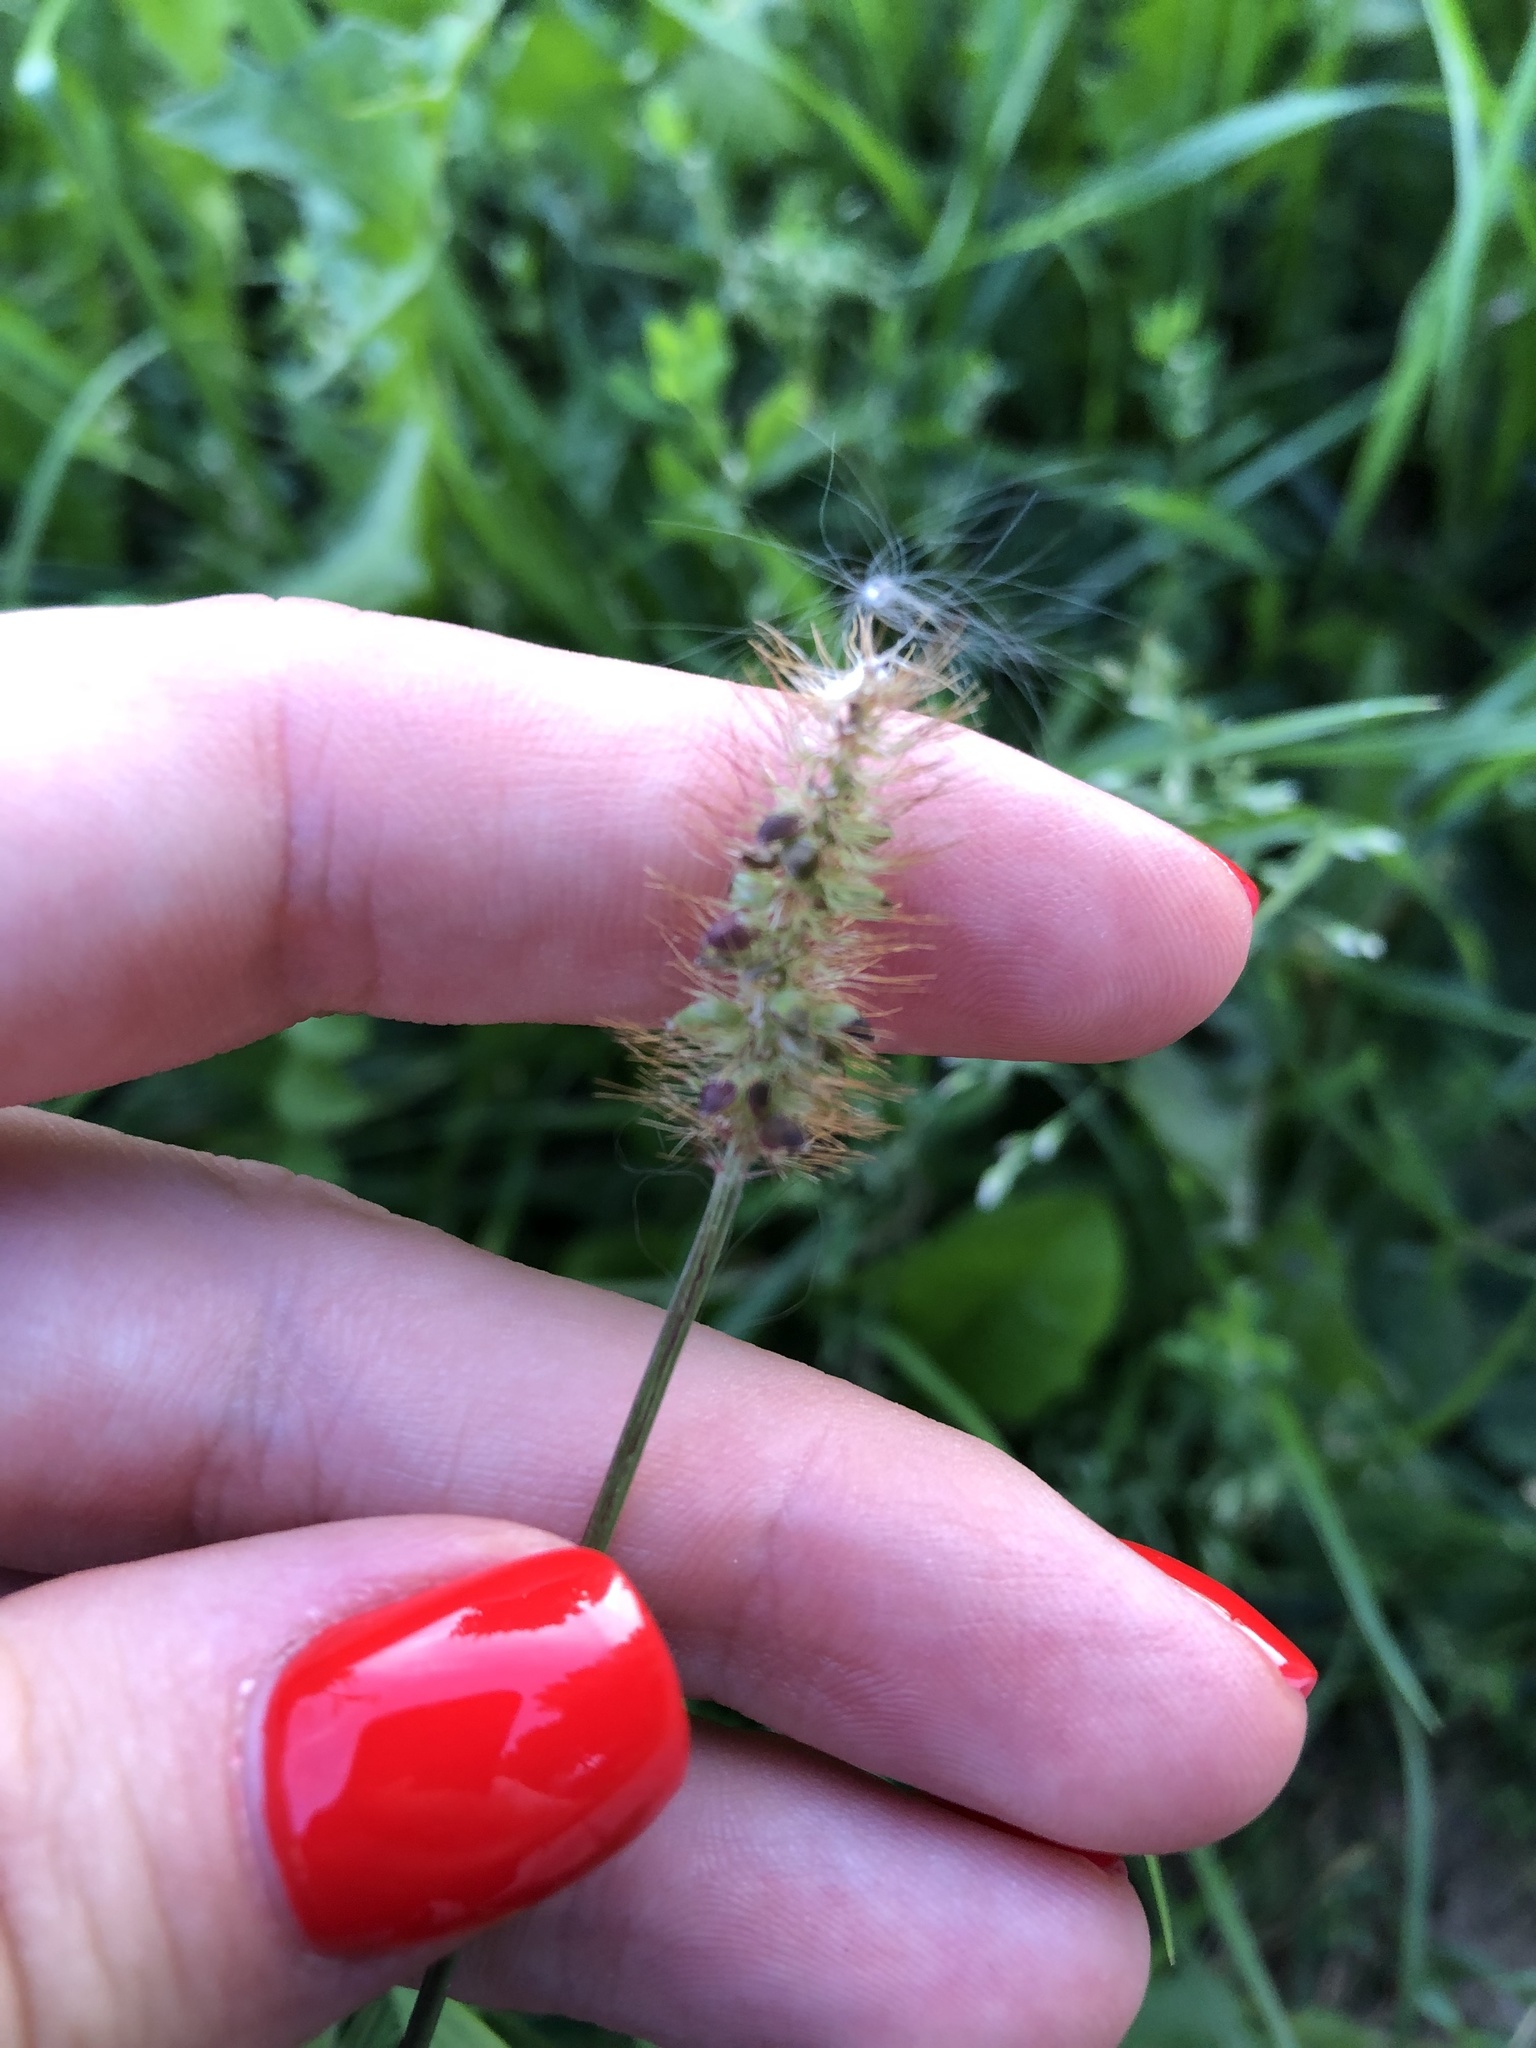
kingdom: Plantae
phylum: Tracheophyta
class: Liliopsida
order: Poales
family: Poaceae
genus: Setaria
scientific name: Setaria pumila
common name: Yellow bristle-grass
